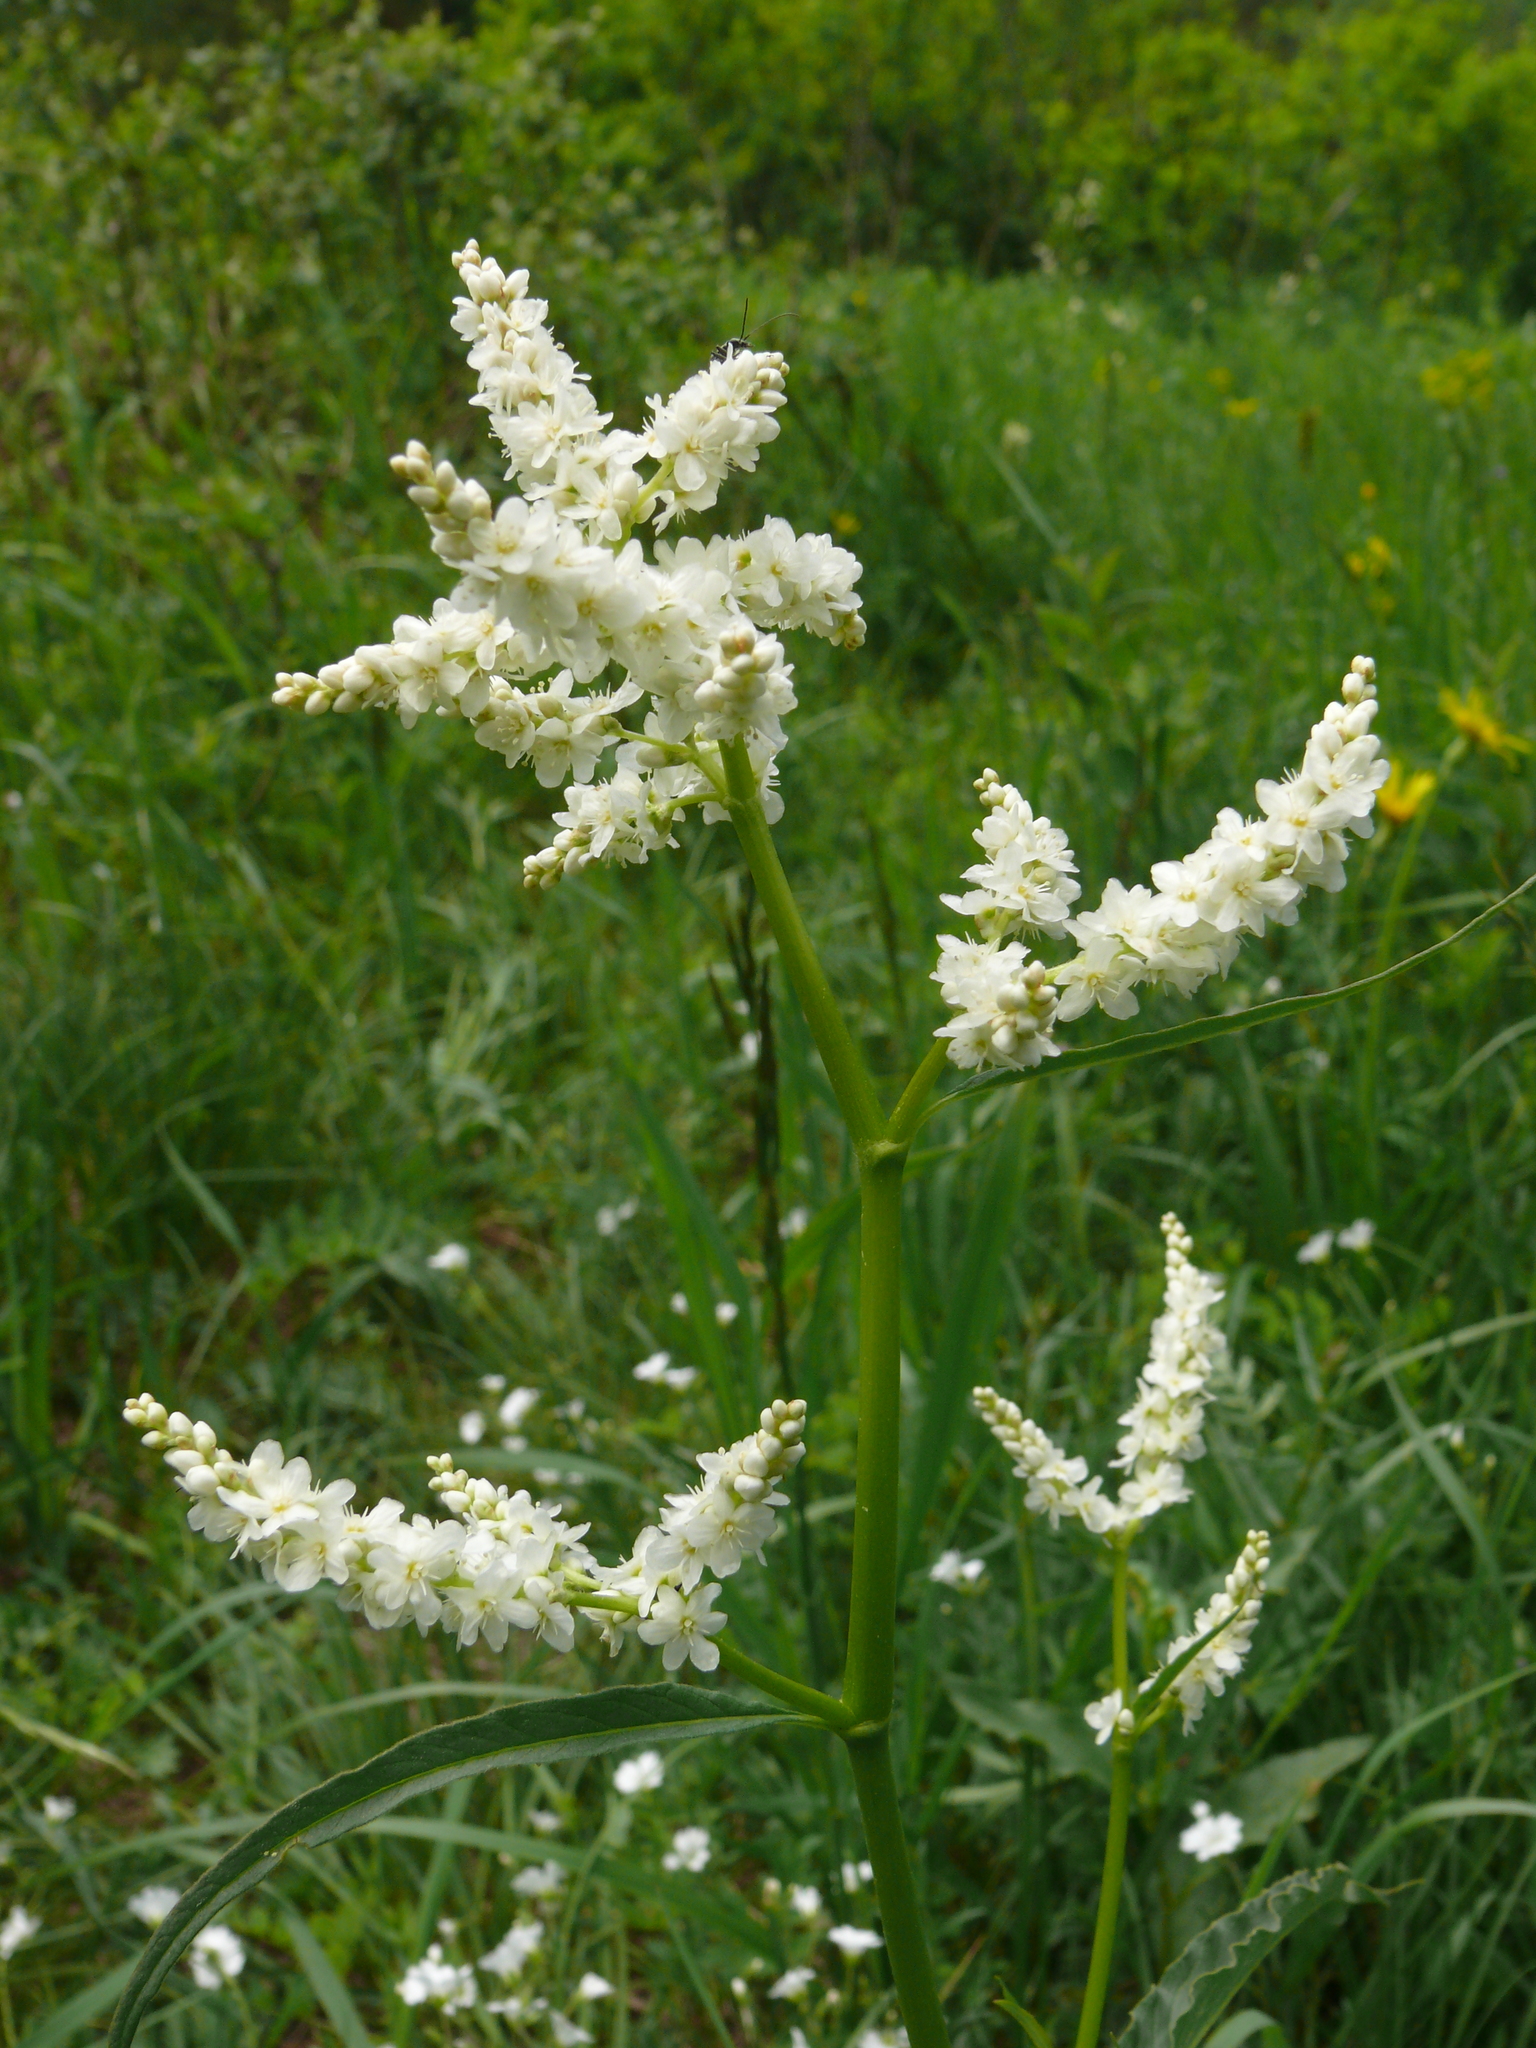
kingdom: Plantae
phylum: Tracheophyta
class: Magnoliopsida
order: Caryophyllales
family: Polygonaceae
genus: Koenigia
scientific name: Koenigia alpina
